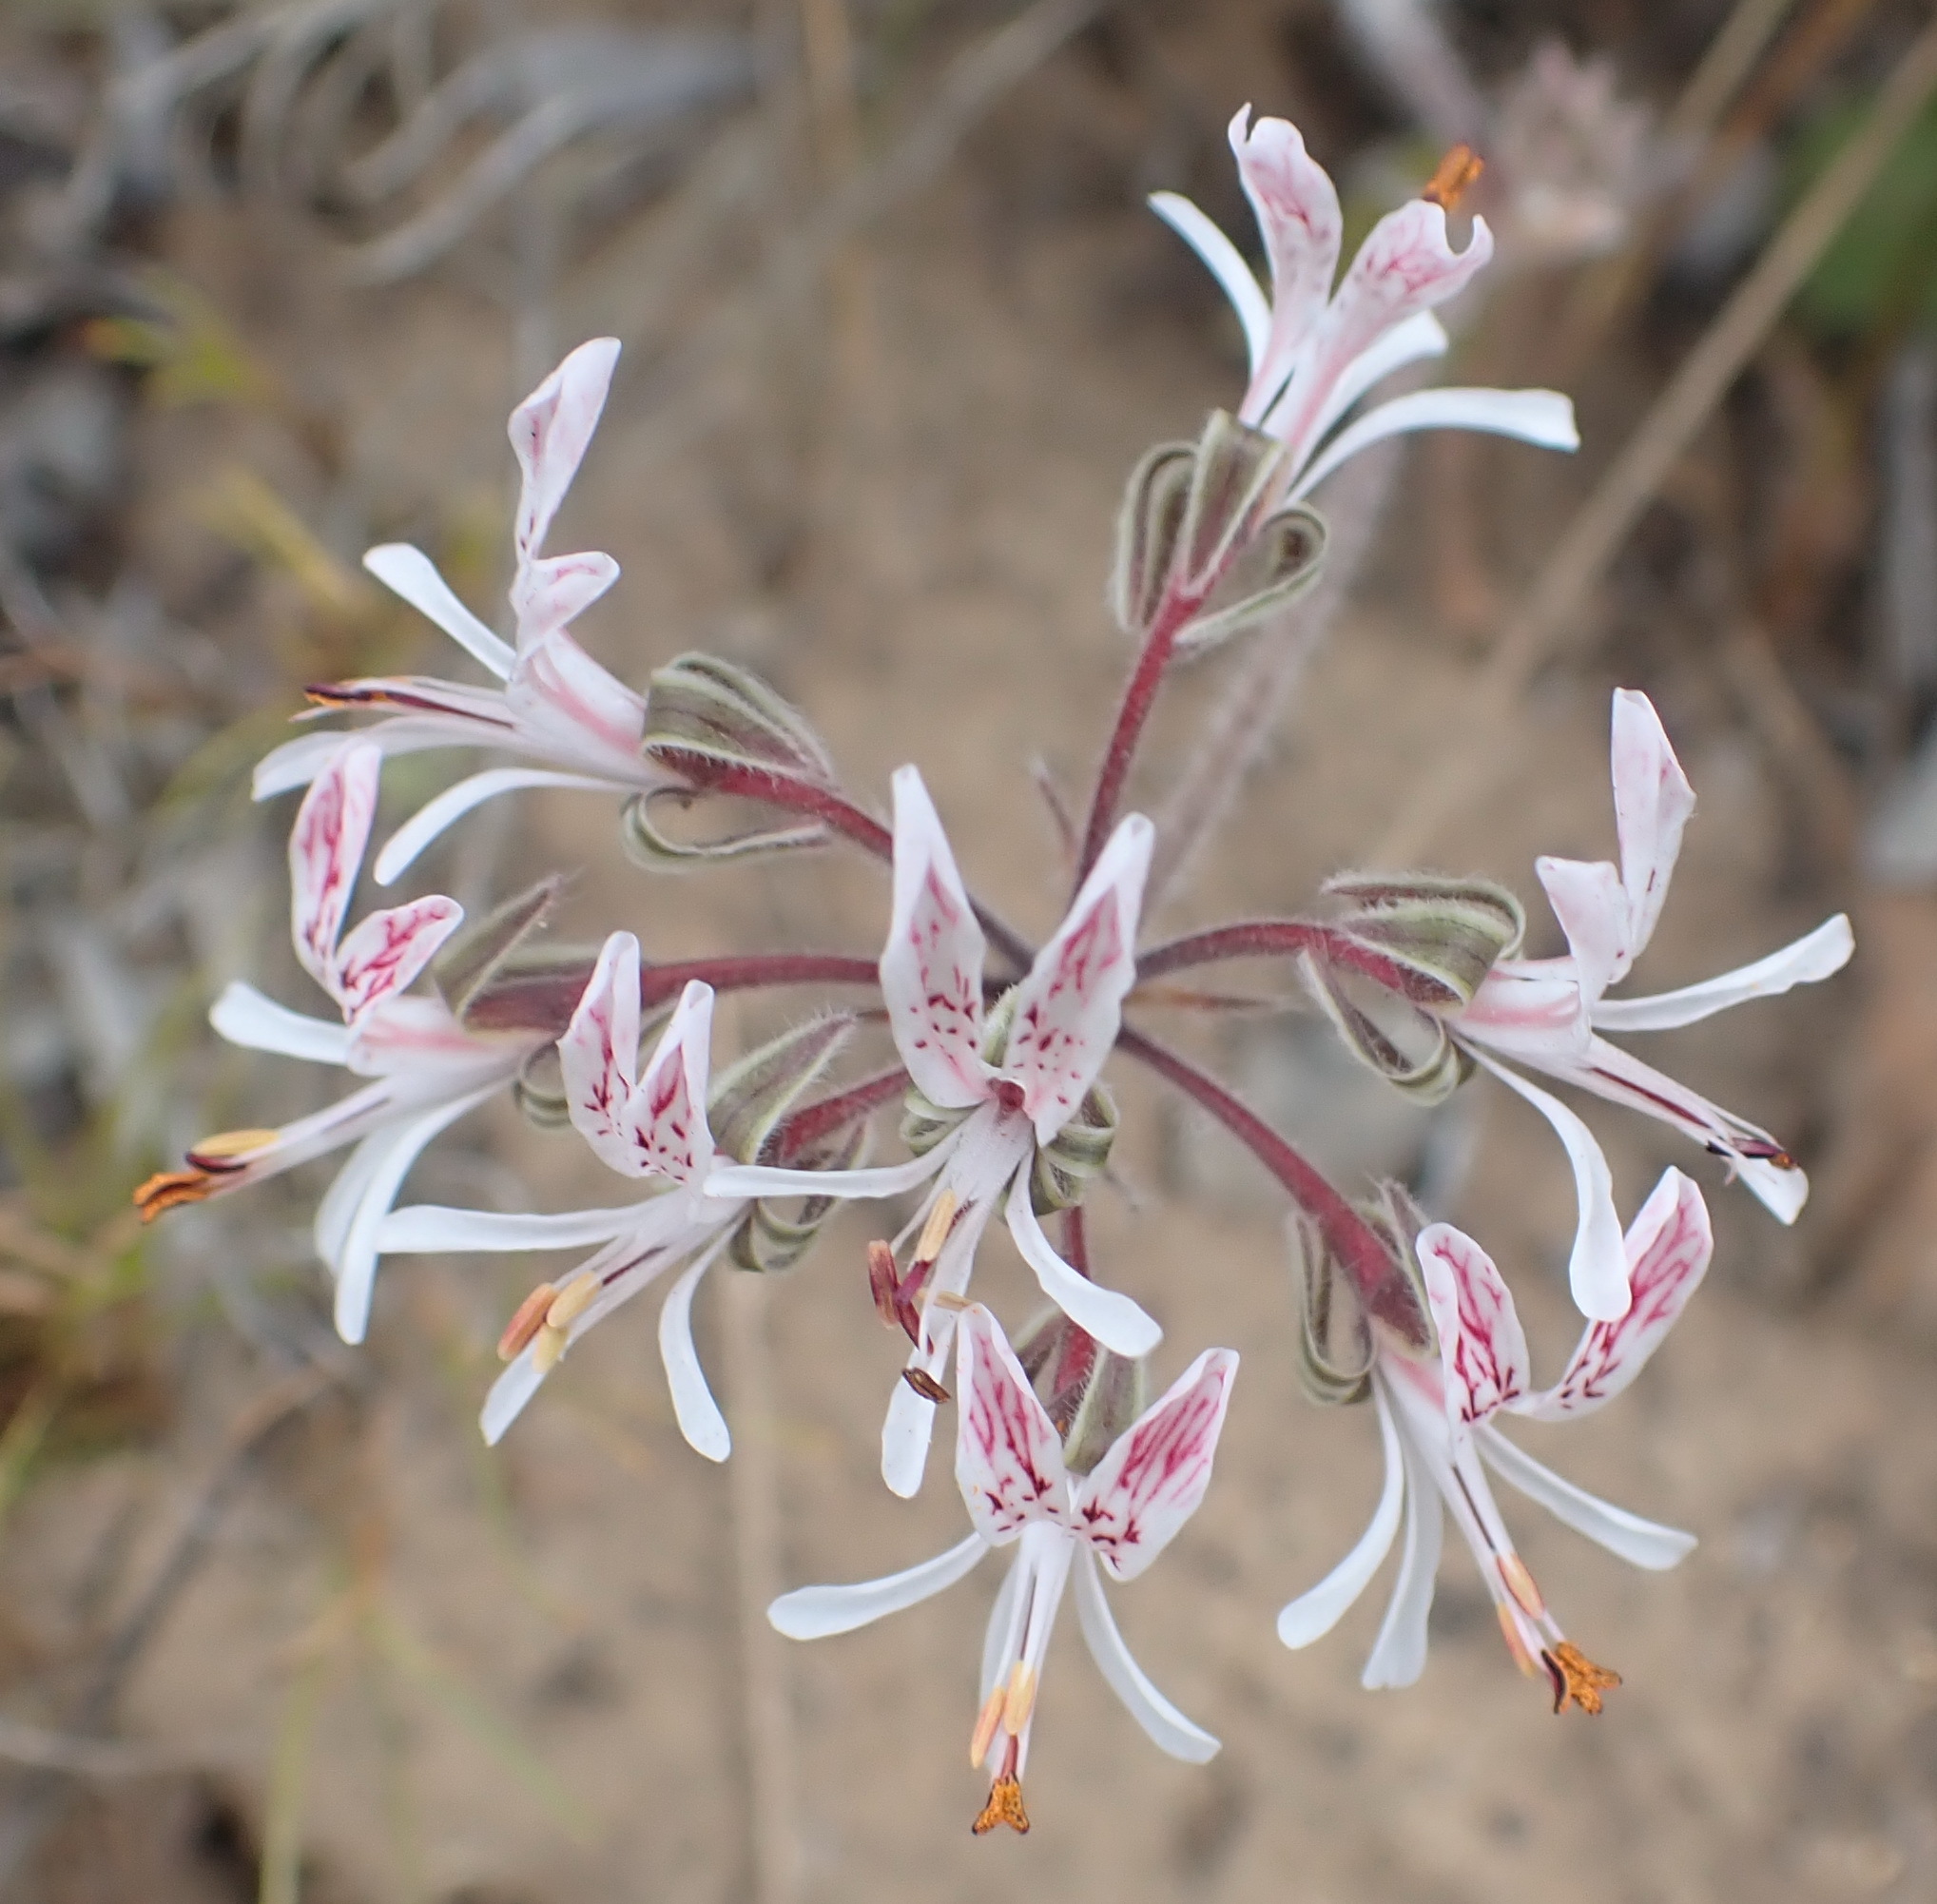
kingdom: Plantae
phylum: Tracheophyta
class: Magnoliopsida
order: Geraniales
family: Geraniaceae
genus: Pelargonium
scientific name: Pelargonium auritum
